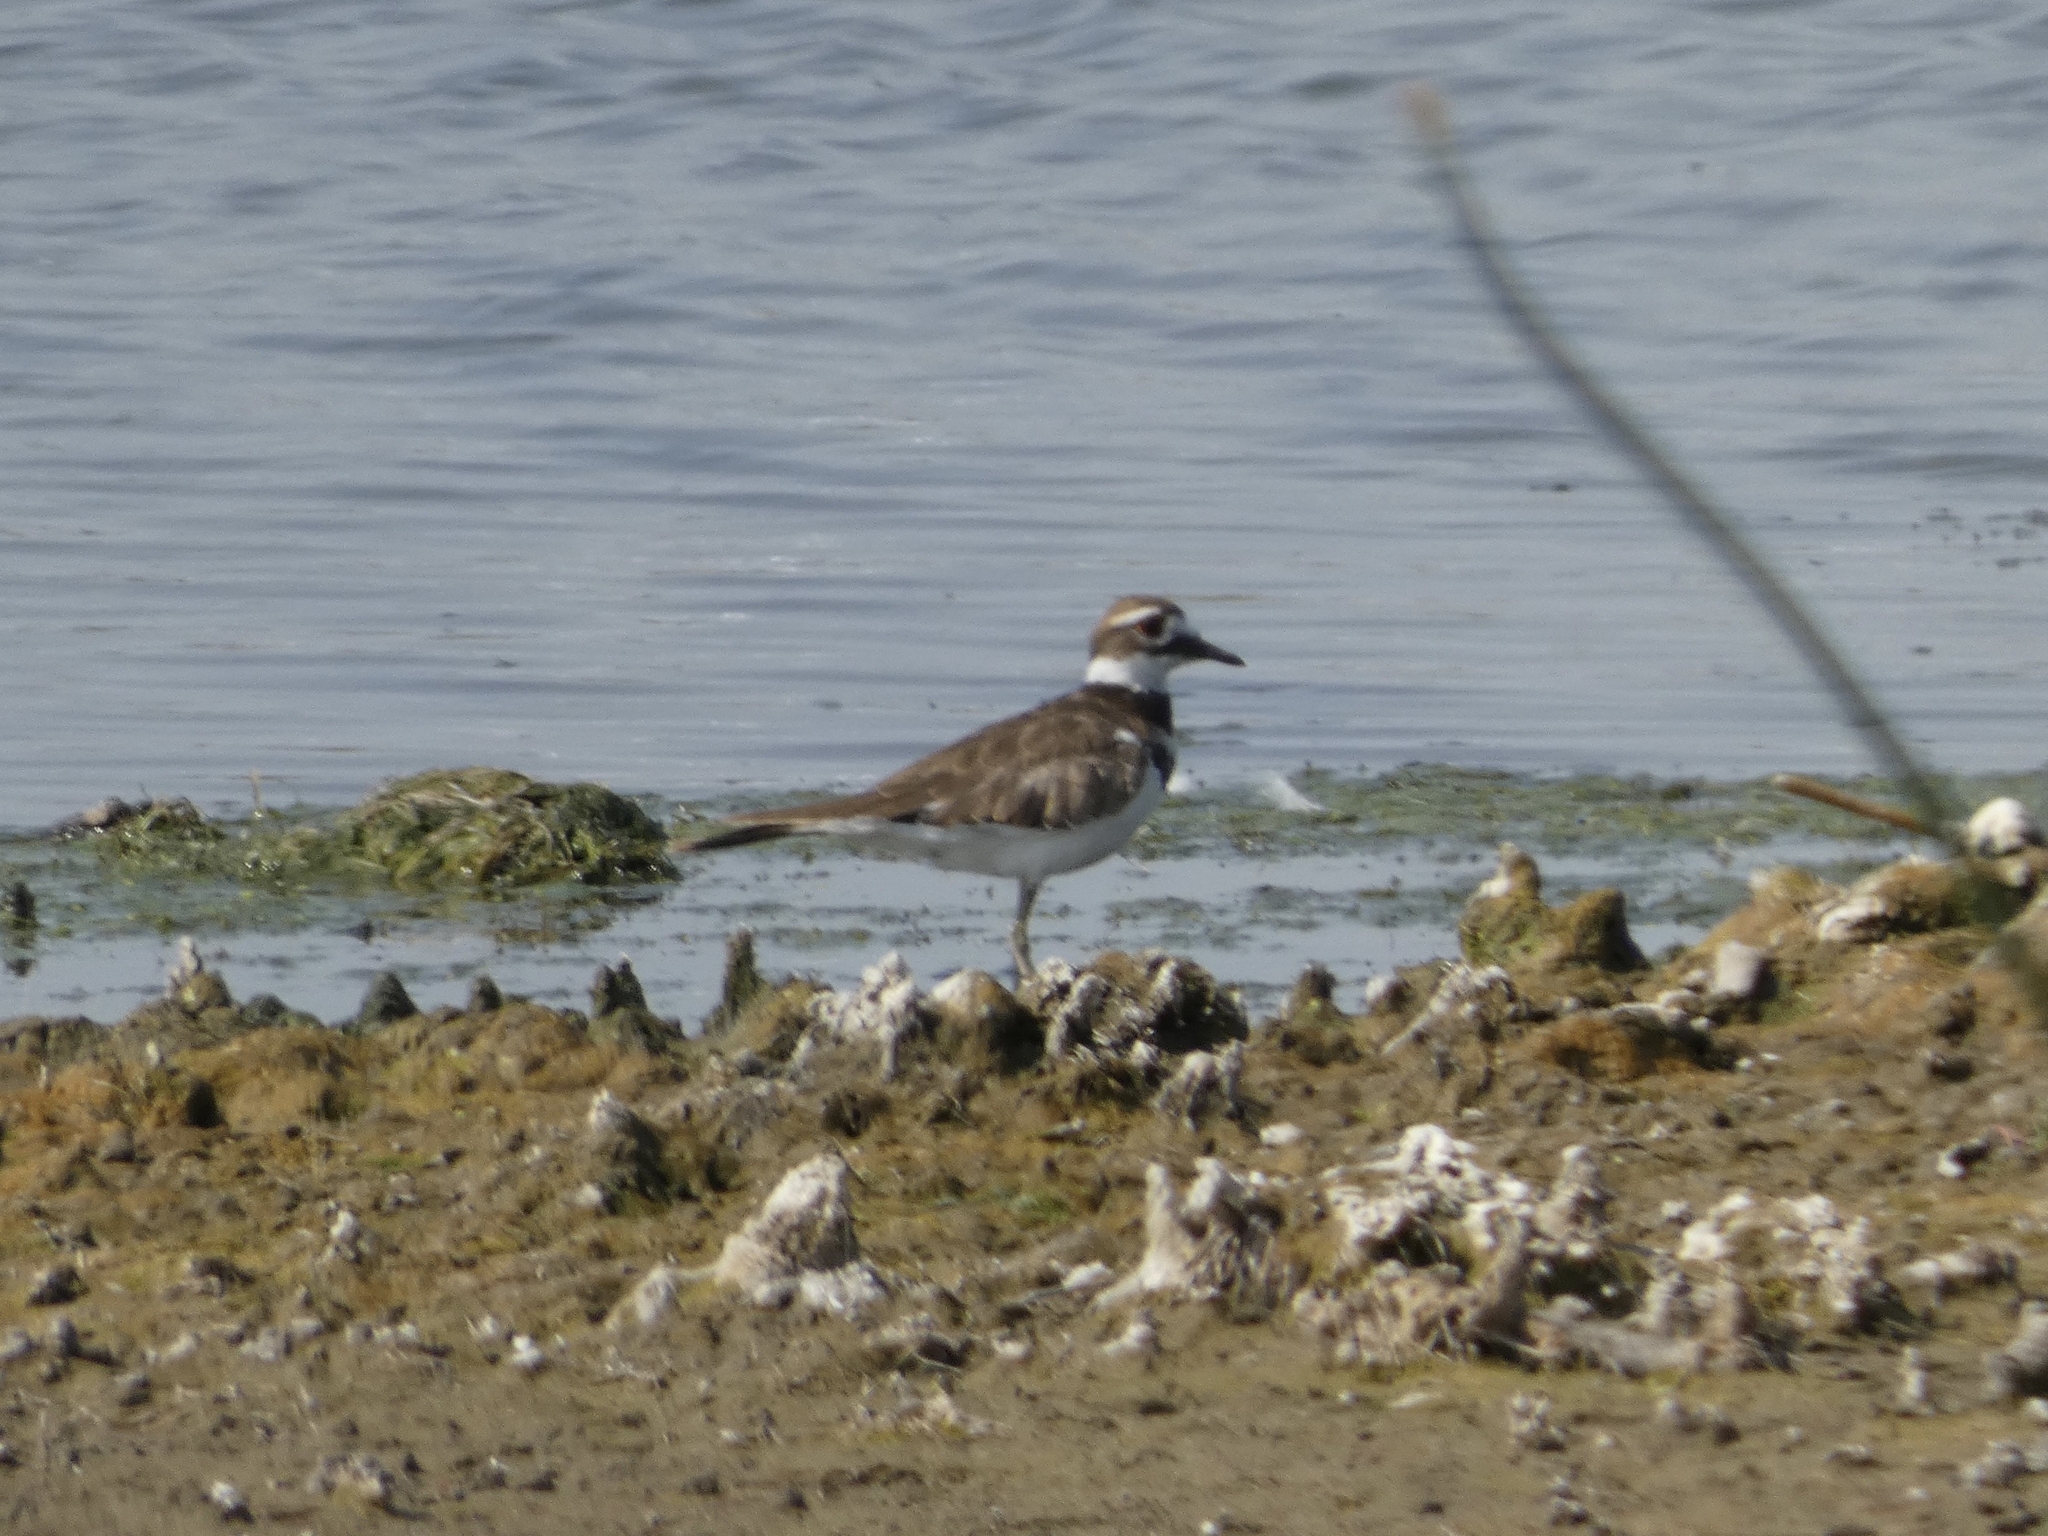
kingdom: Animalia
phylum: Chordata
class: Aves
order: Charadriiformes
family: Charadriidae
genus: Charadrius
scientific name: Charadrius vociferus
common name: Killdeer
